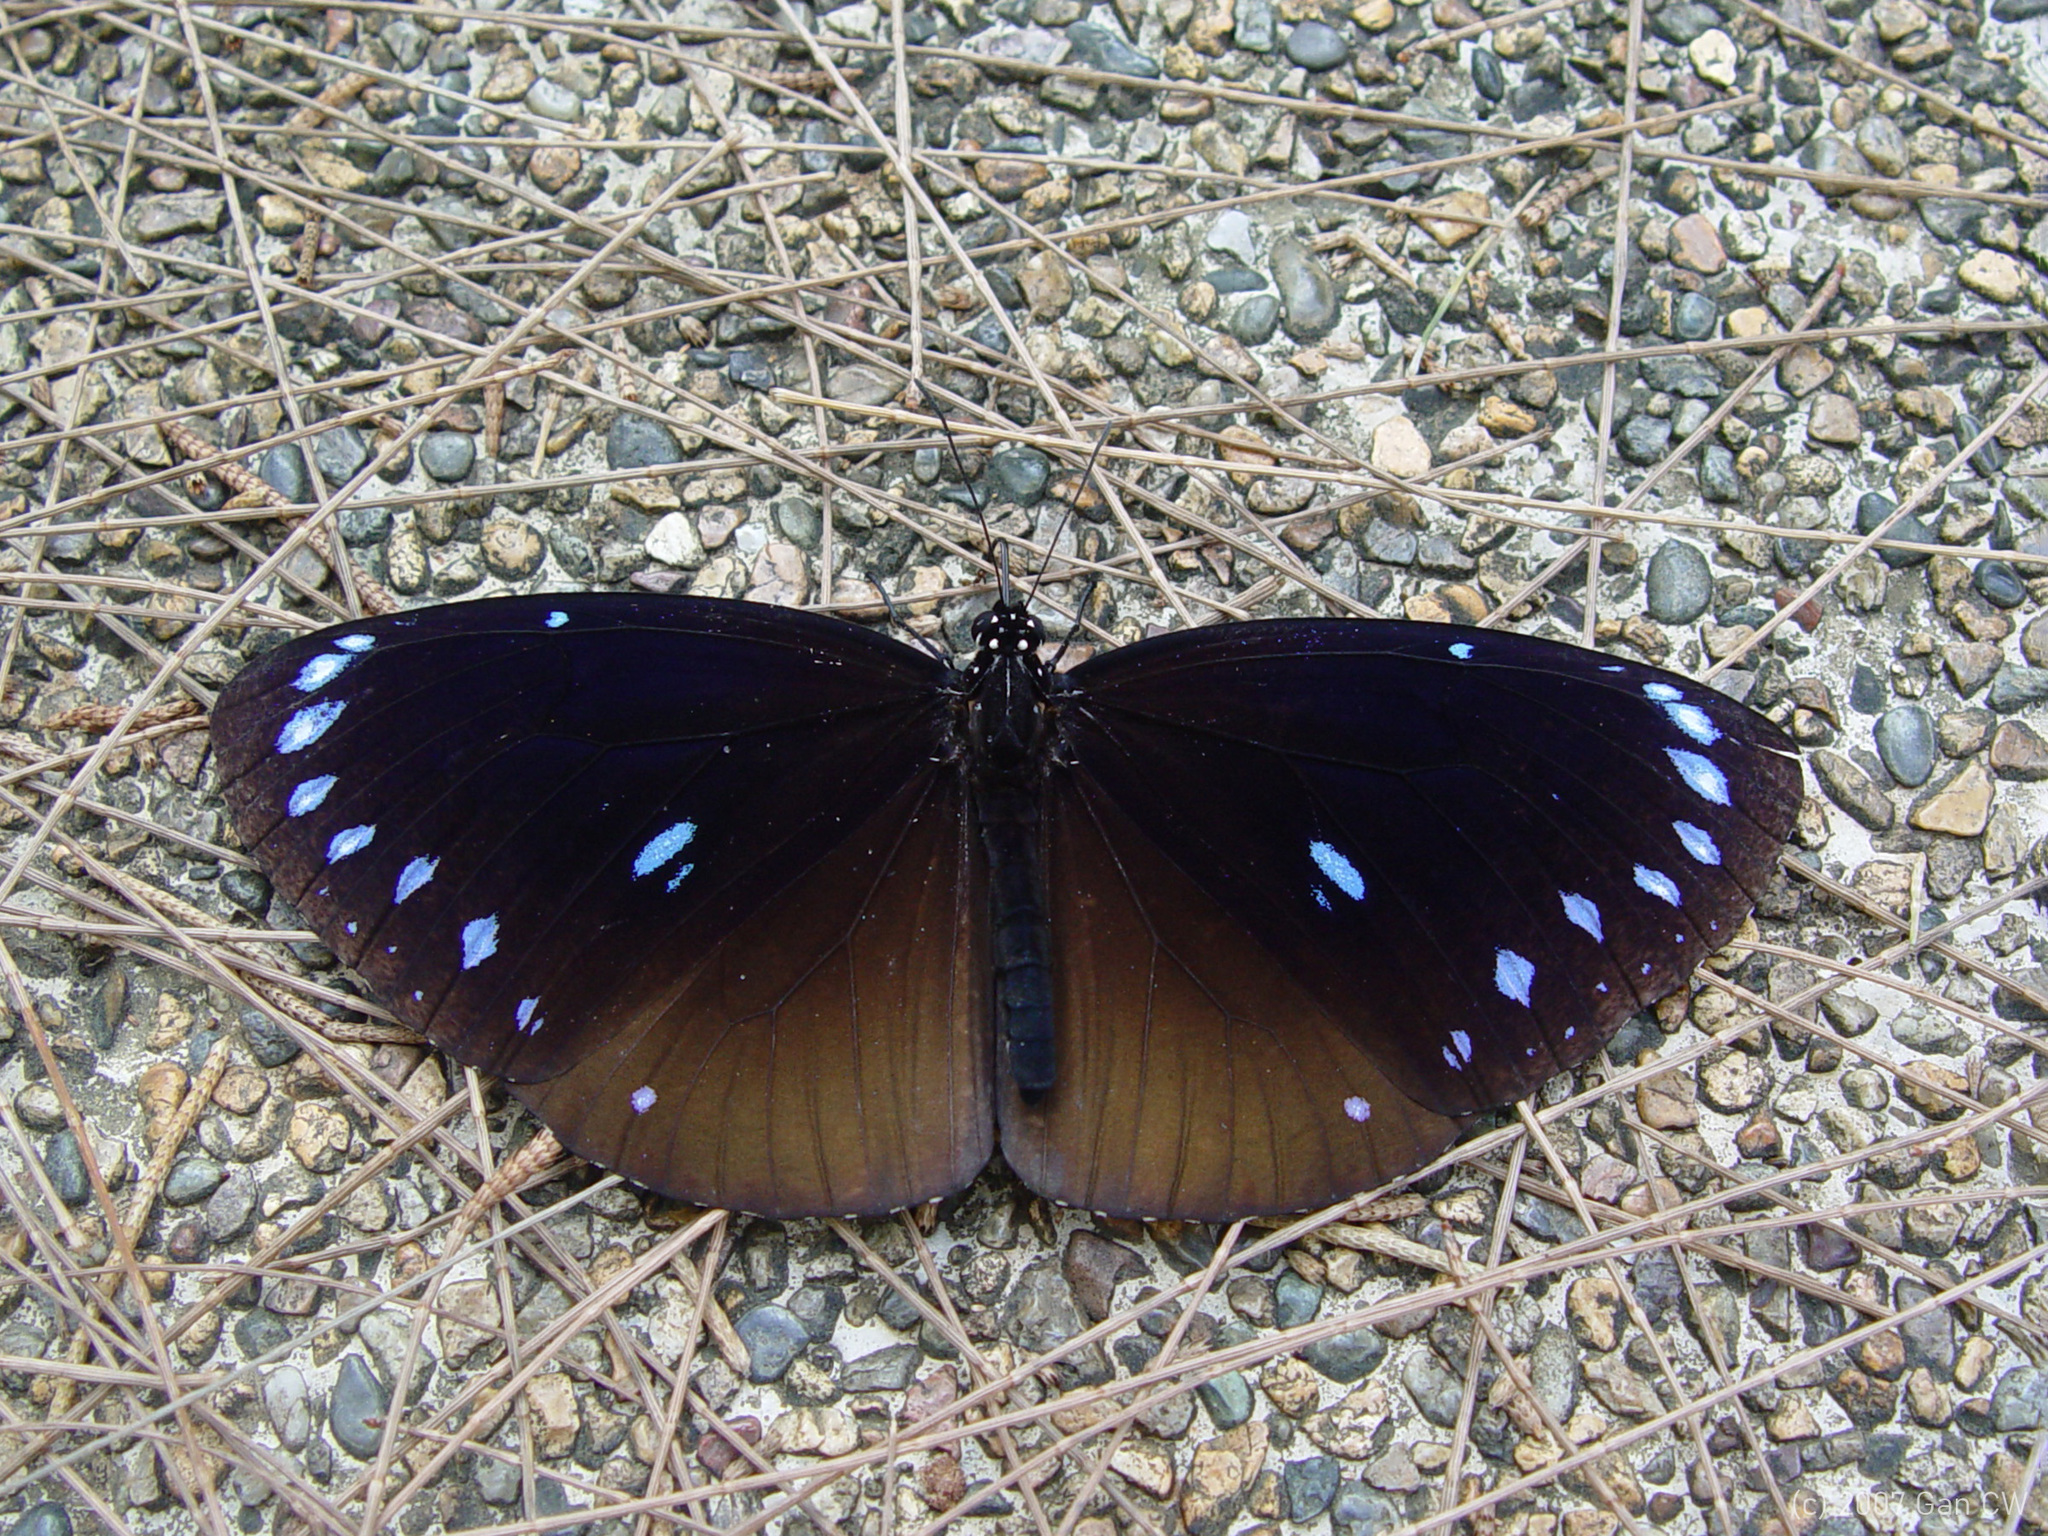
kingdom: Animalia
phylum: Arthropoda
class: Insecta
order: Lepidoptera
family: Nymphalidae
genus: Euploea
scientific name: Euploea eunice
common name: Blue-banded king crow butterfly
